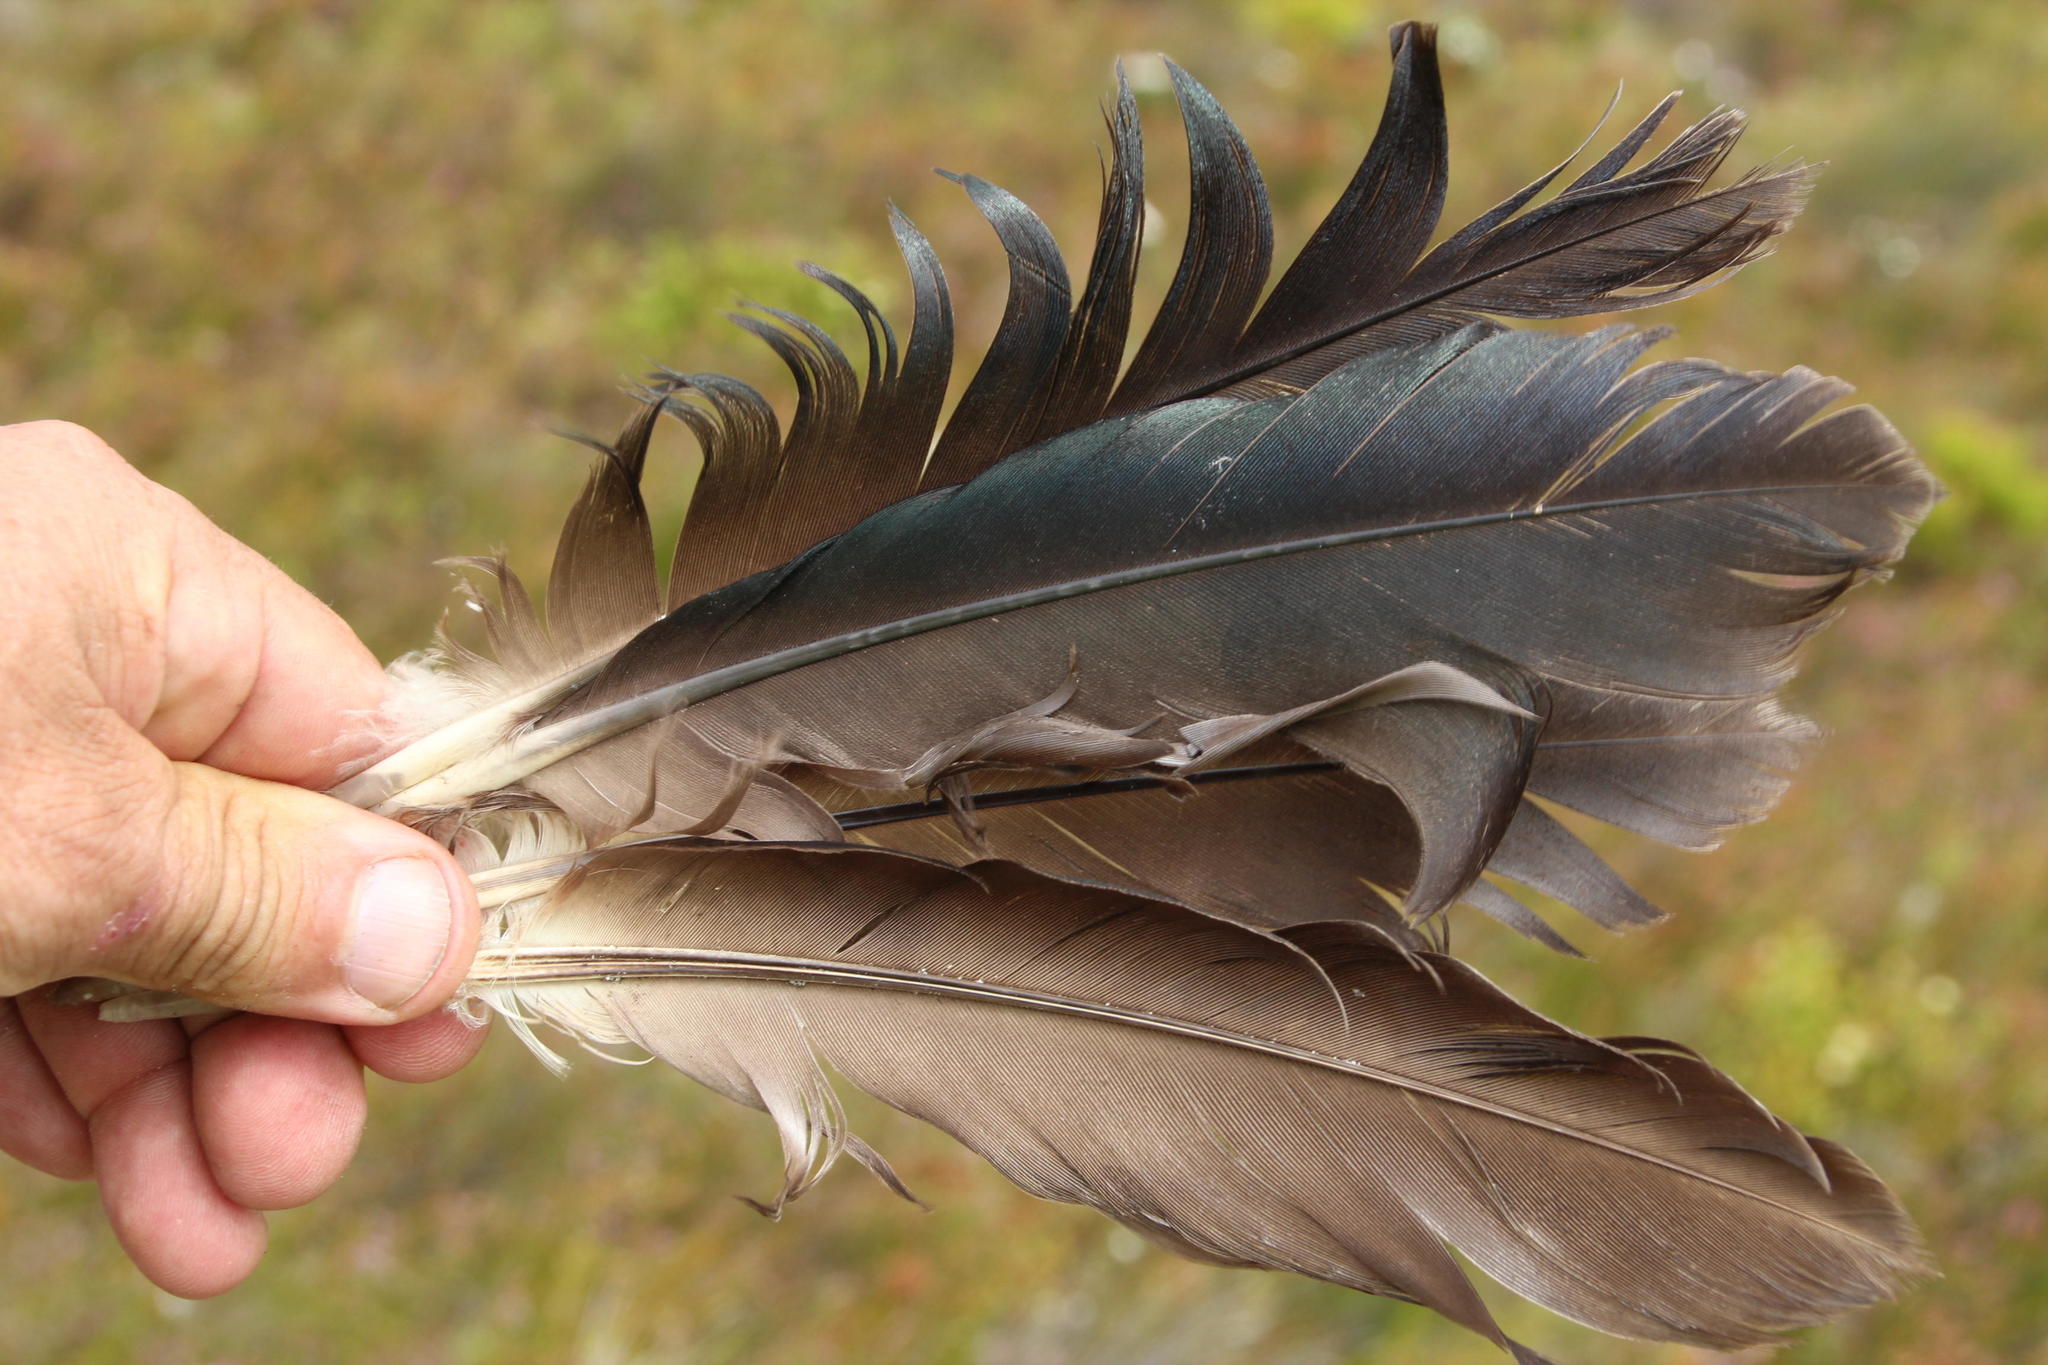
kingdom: Animalia
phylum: Chordata
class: Aves
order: Pelecaniformes
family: Threskiornithidae
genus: Bostrychia
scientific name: Bostrychia hagedash
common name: Hadada ibis
